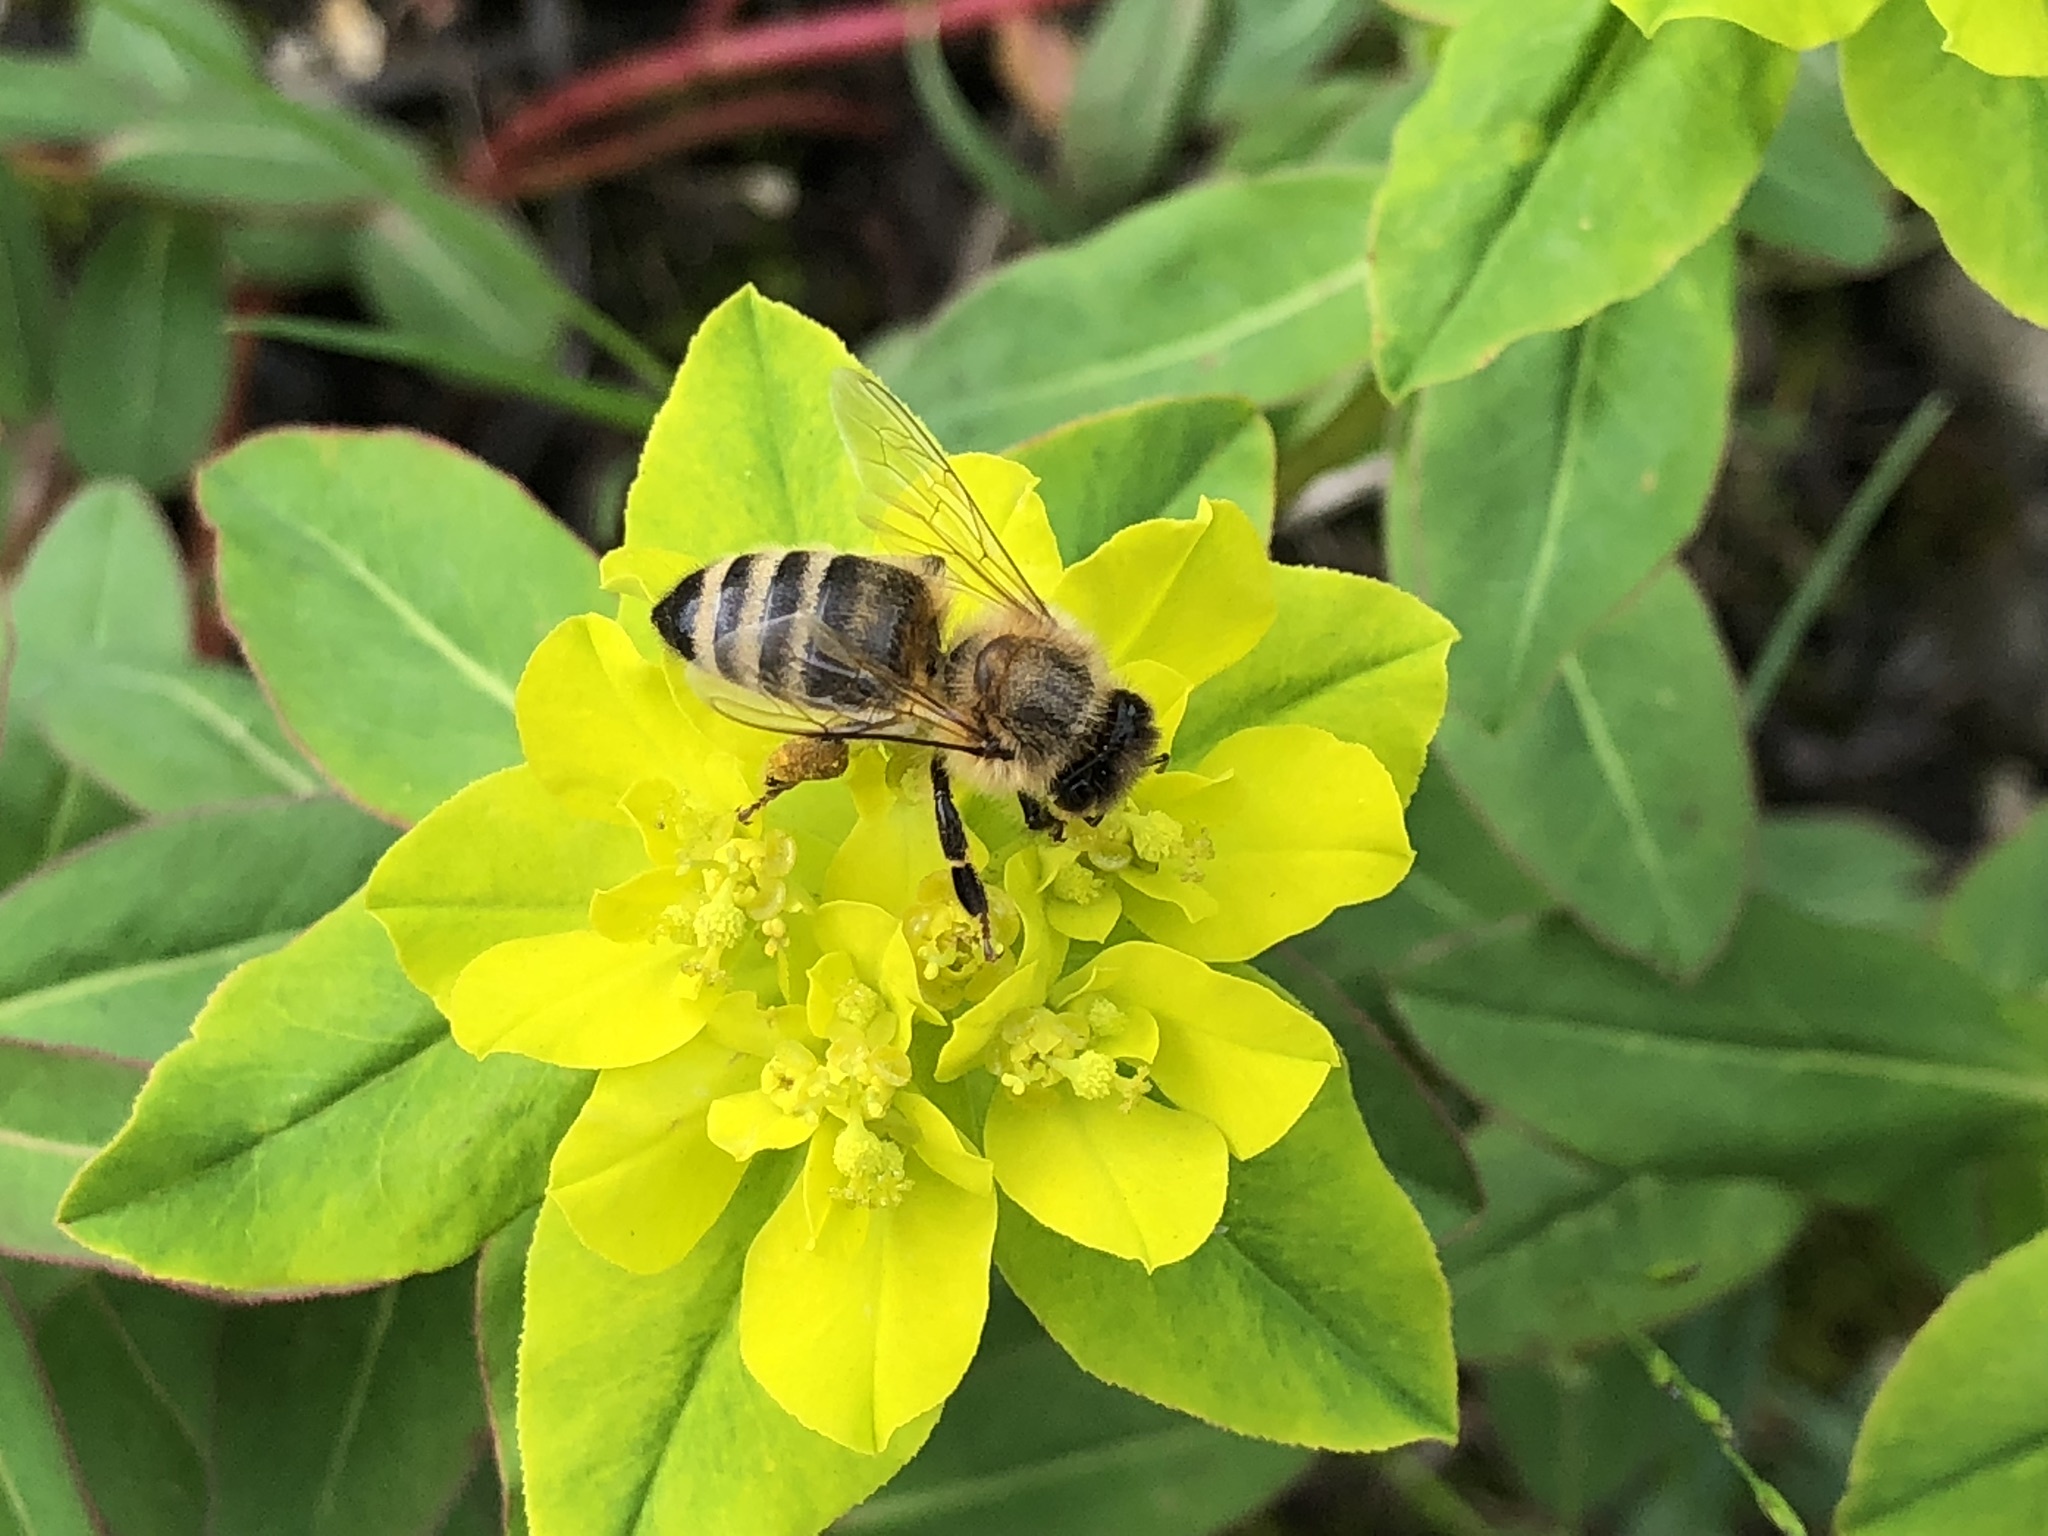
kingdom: Animalia
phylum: Arthropoda
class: Insecta
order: Hymenoptera
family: Apidae
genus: Apis
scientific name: Apis mellifera
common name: Honey bee
